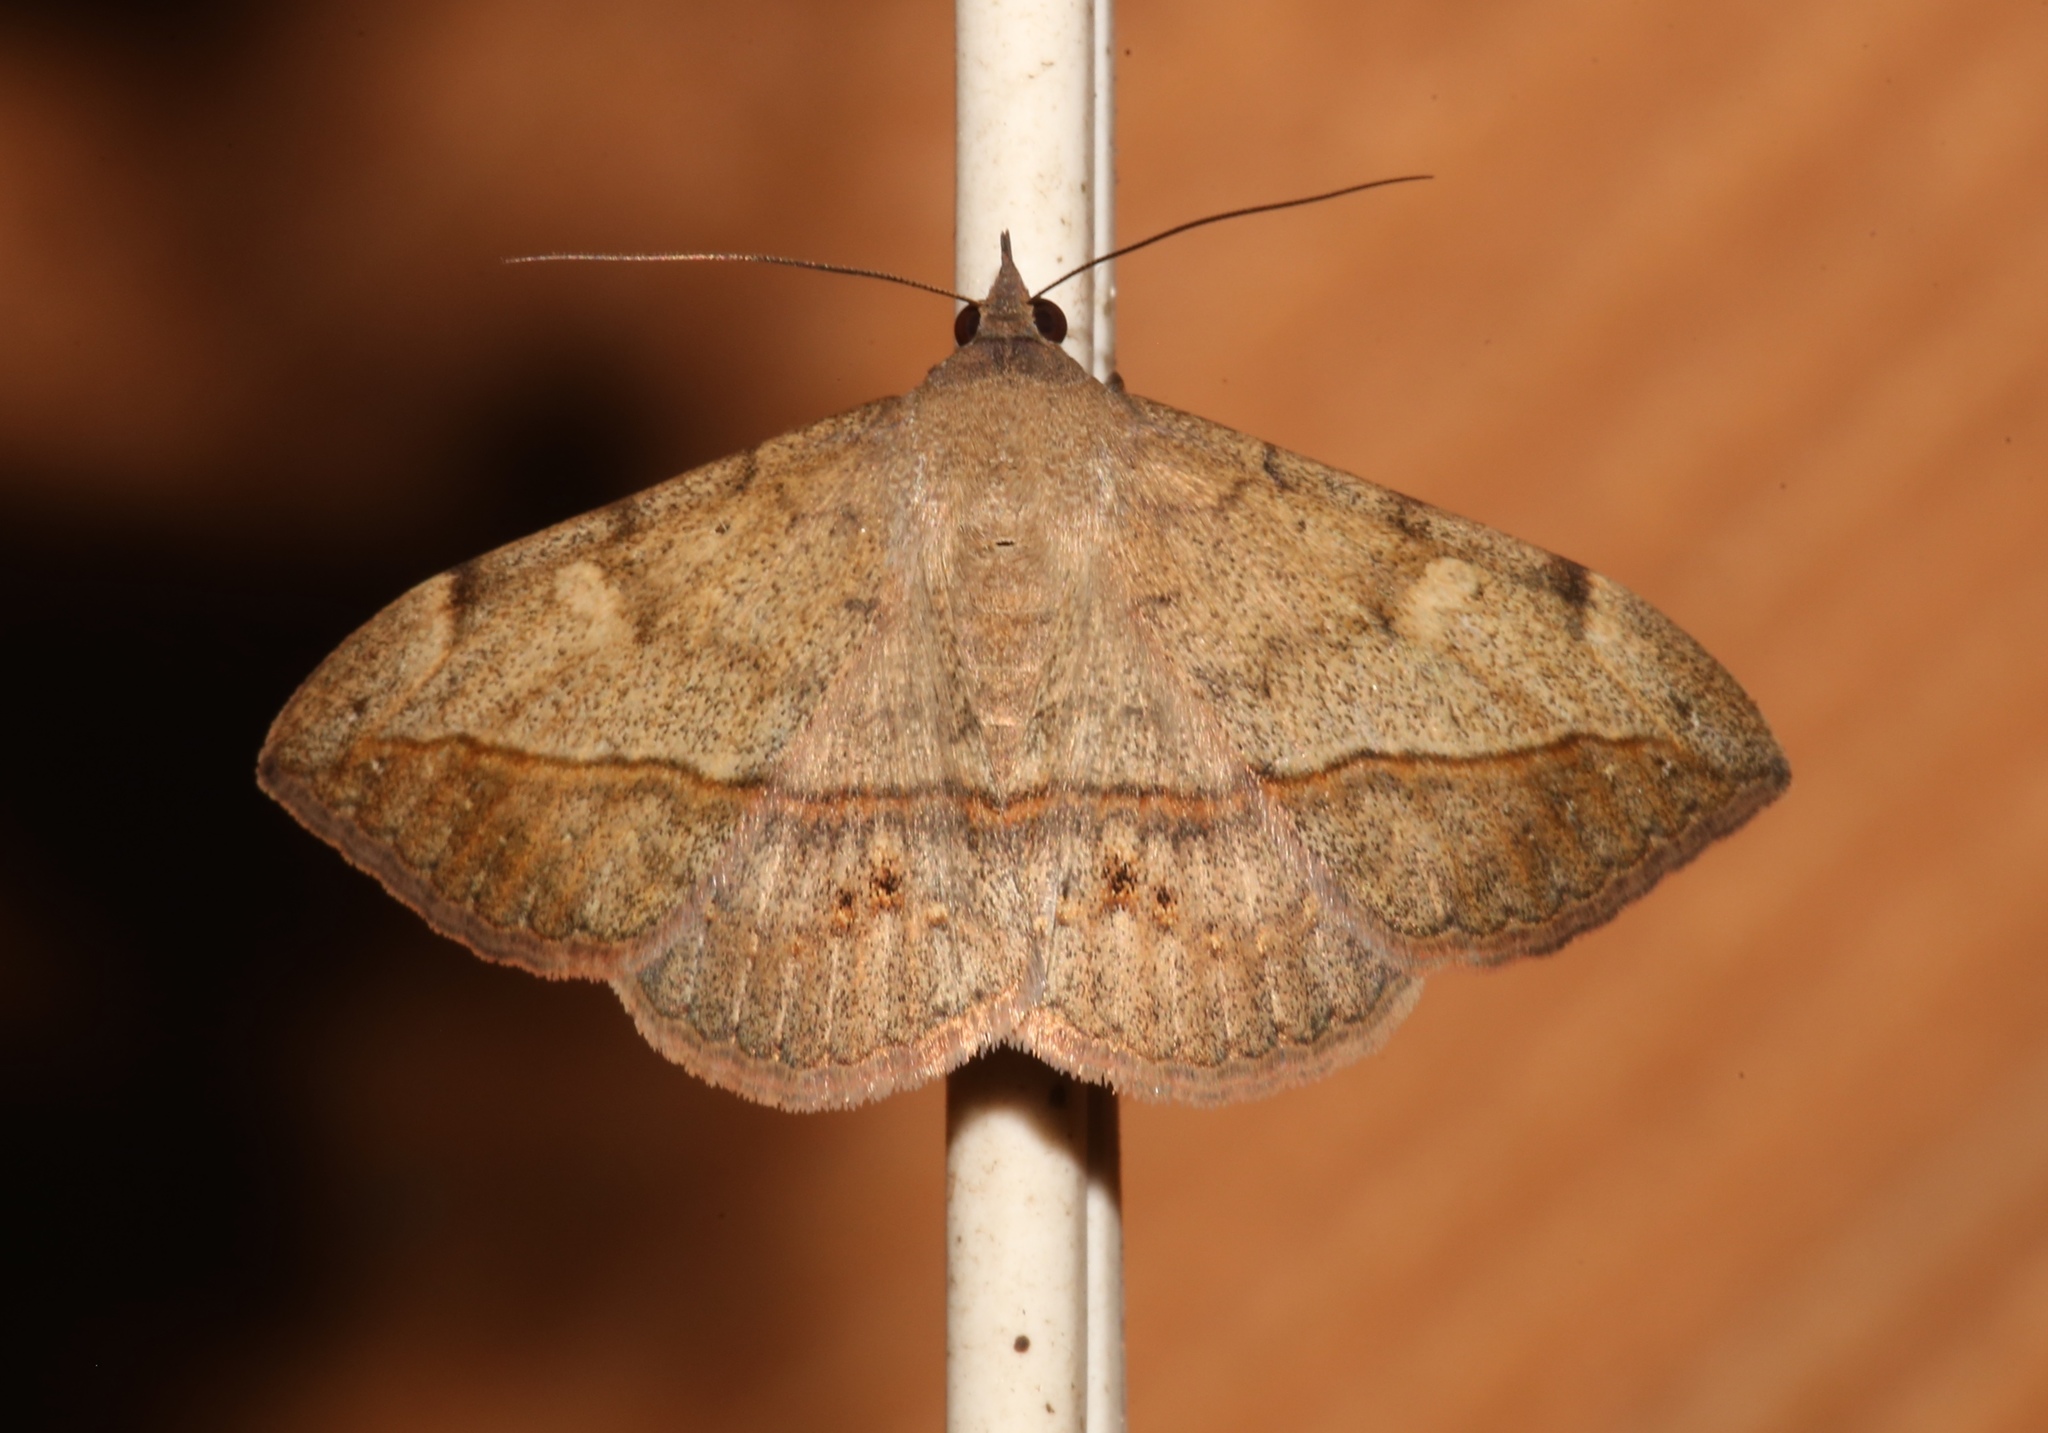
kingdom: Animalia
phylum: Arthropoda
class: Insecta
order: Lepidoptera
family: Erebidae
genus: Anticarsia
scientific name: Anticarsia gemmatalis
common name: Cutworm moth
